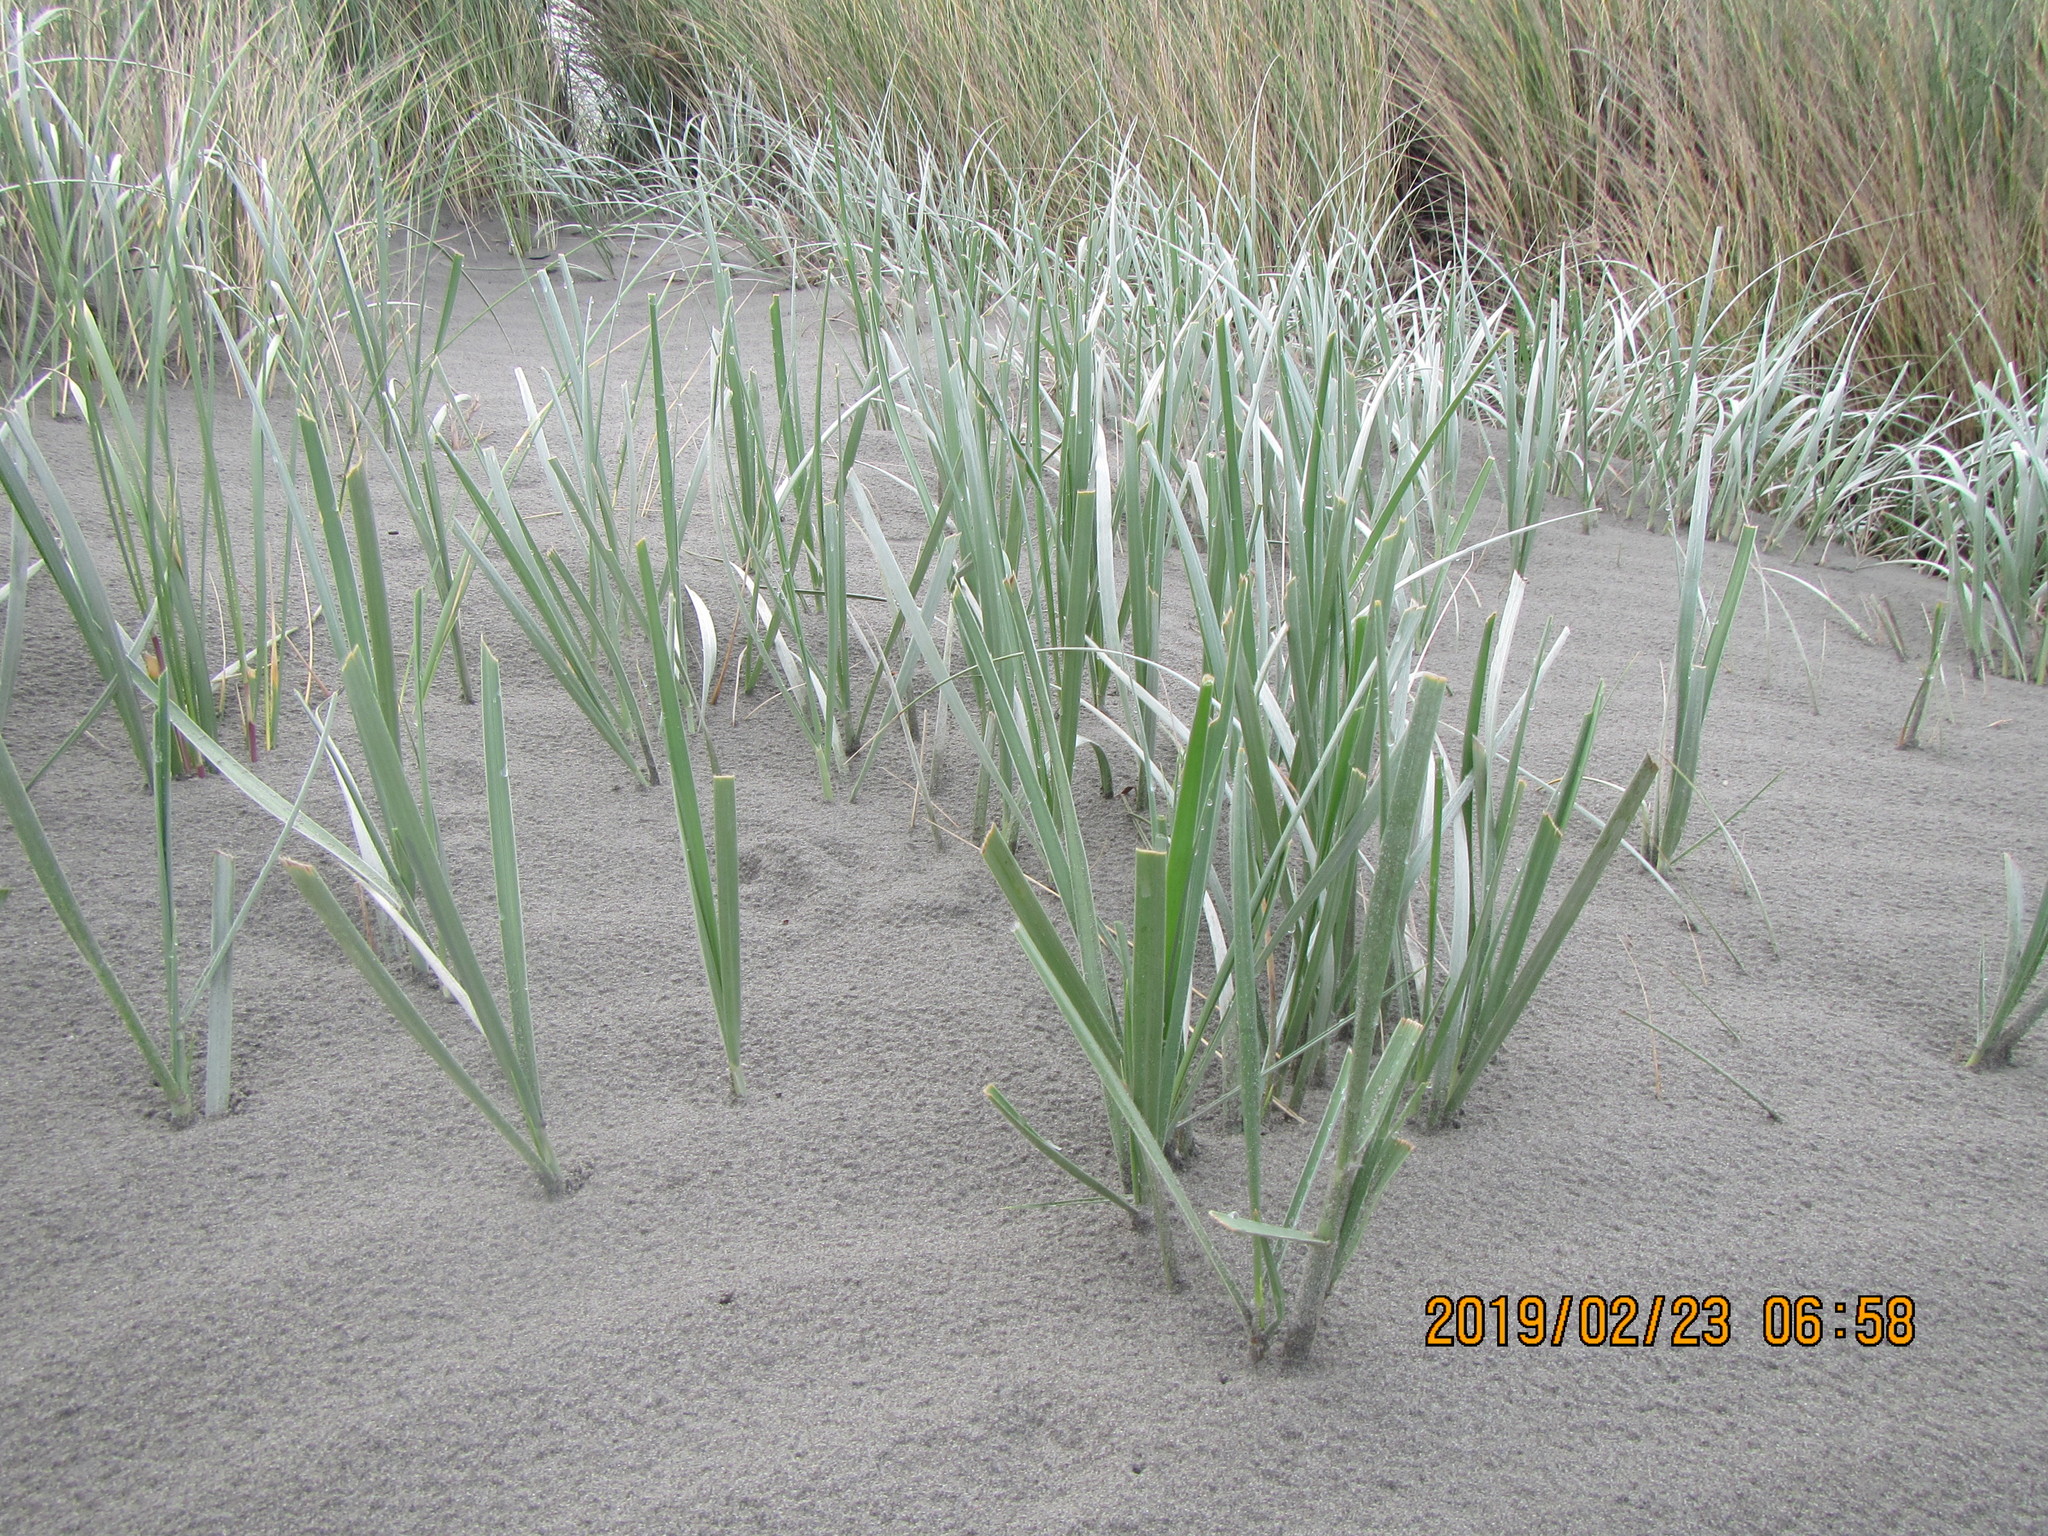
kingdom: Plantae
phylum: Tracheophyta
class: Liliopsida
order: Poales
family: Poaceae
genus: Spinifex
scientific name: Spinifex sericeus
